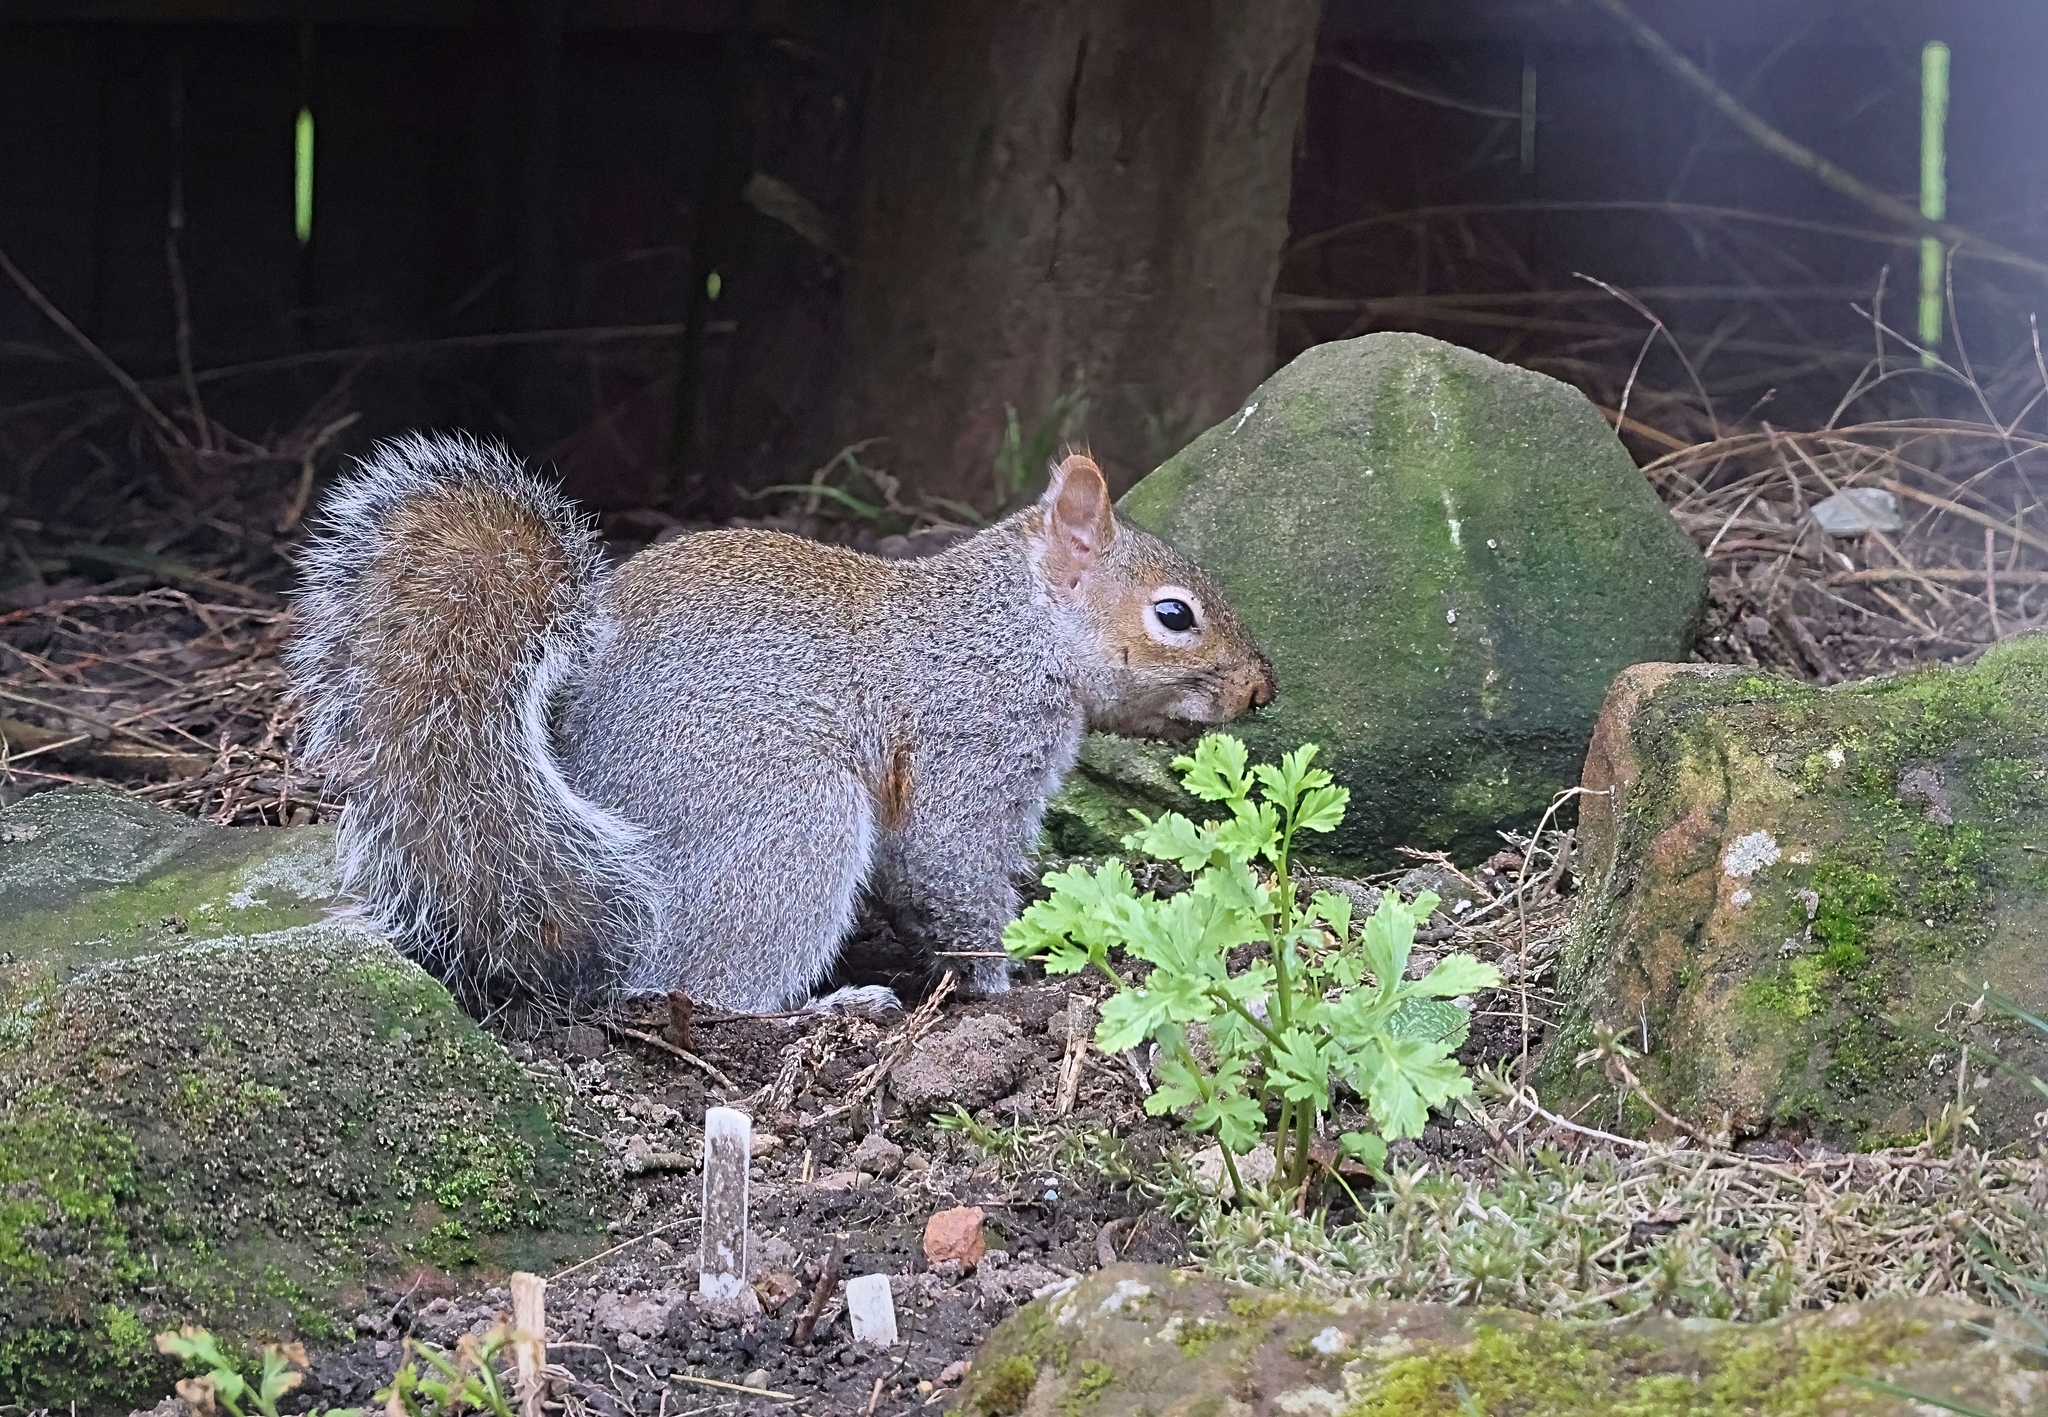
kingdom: Animalia
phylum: Chordata
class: Mammalia
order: Rodentia
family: Sciuridae
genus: Sciurus
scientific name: Sciurus carolinensis
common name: Eastern gray squirrel
